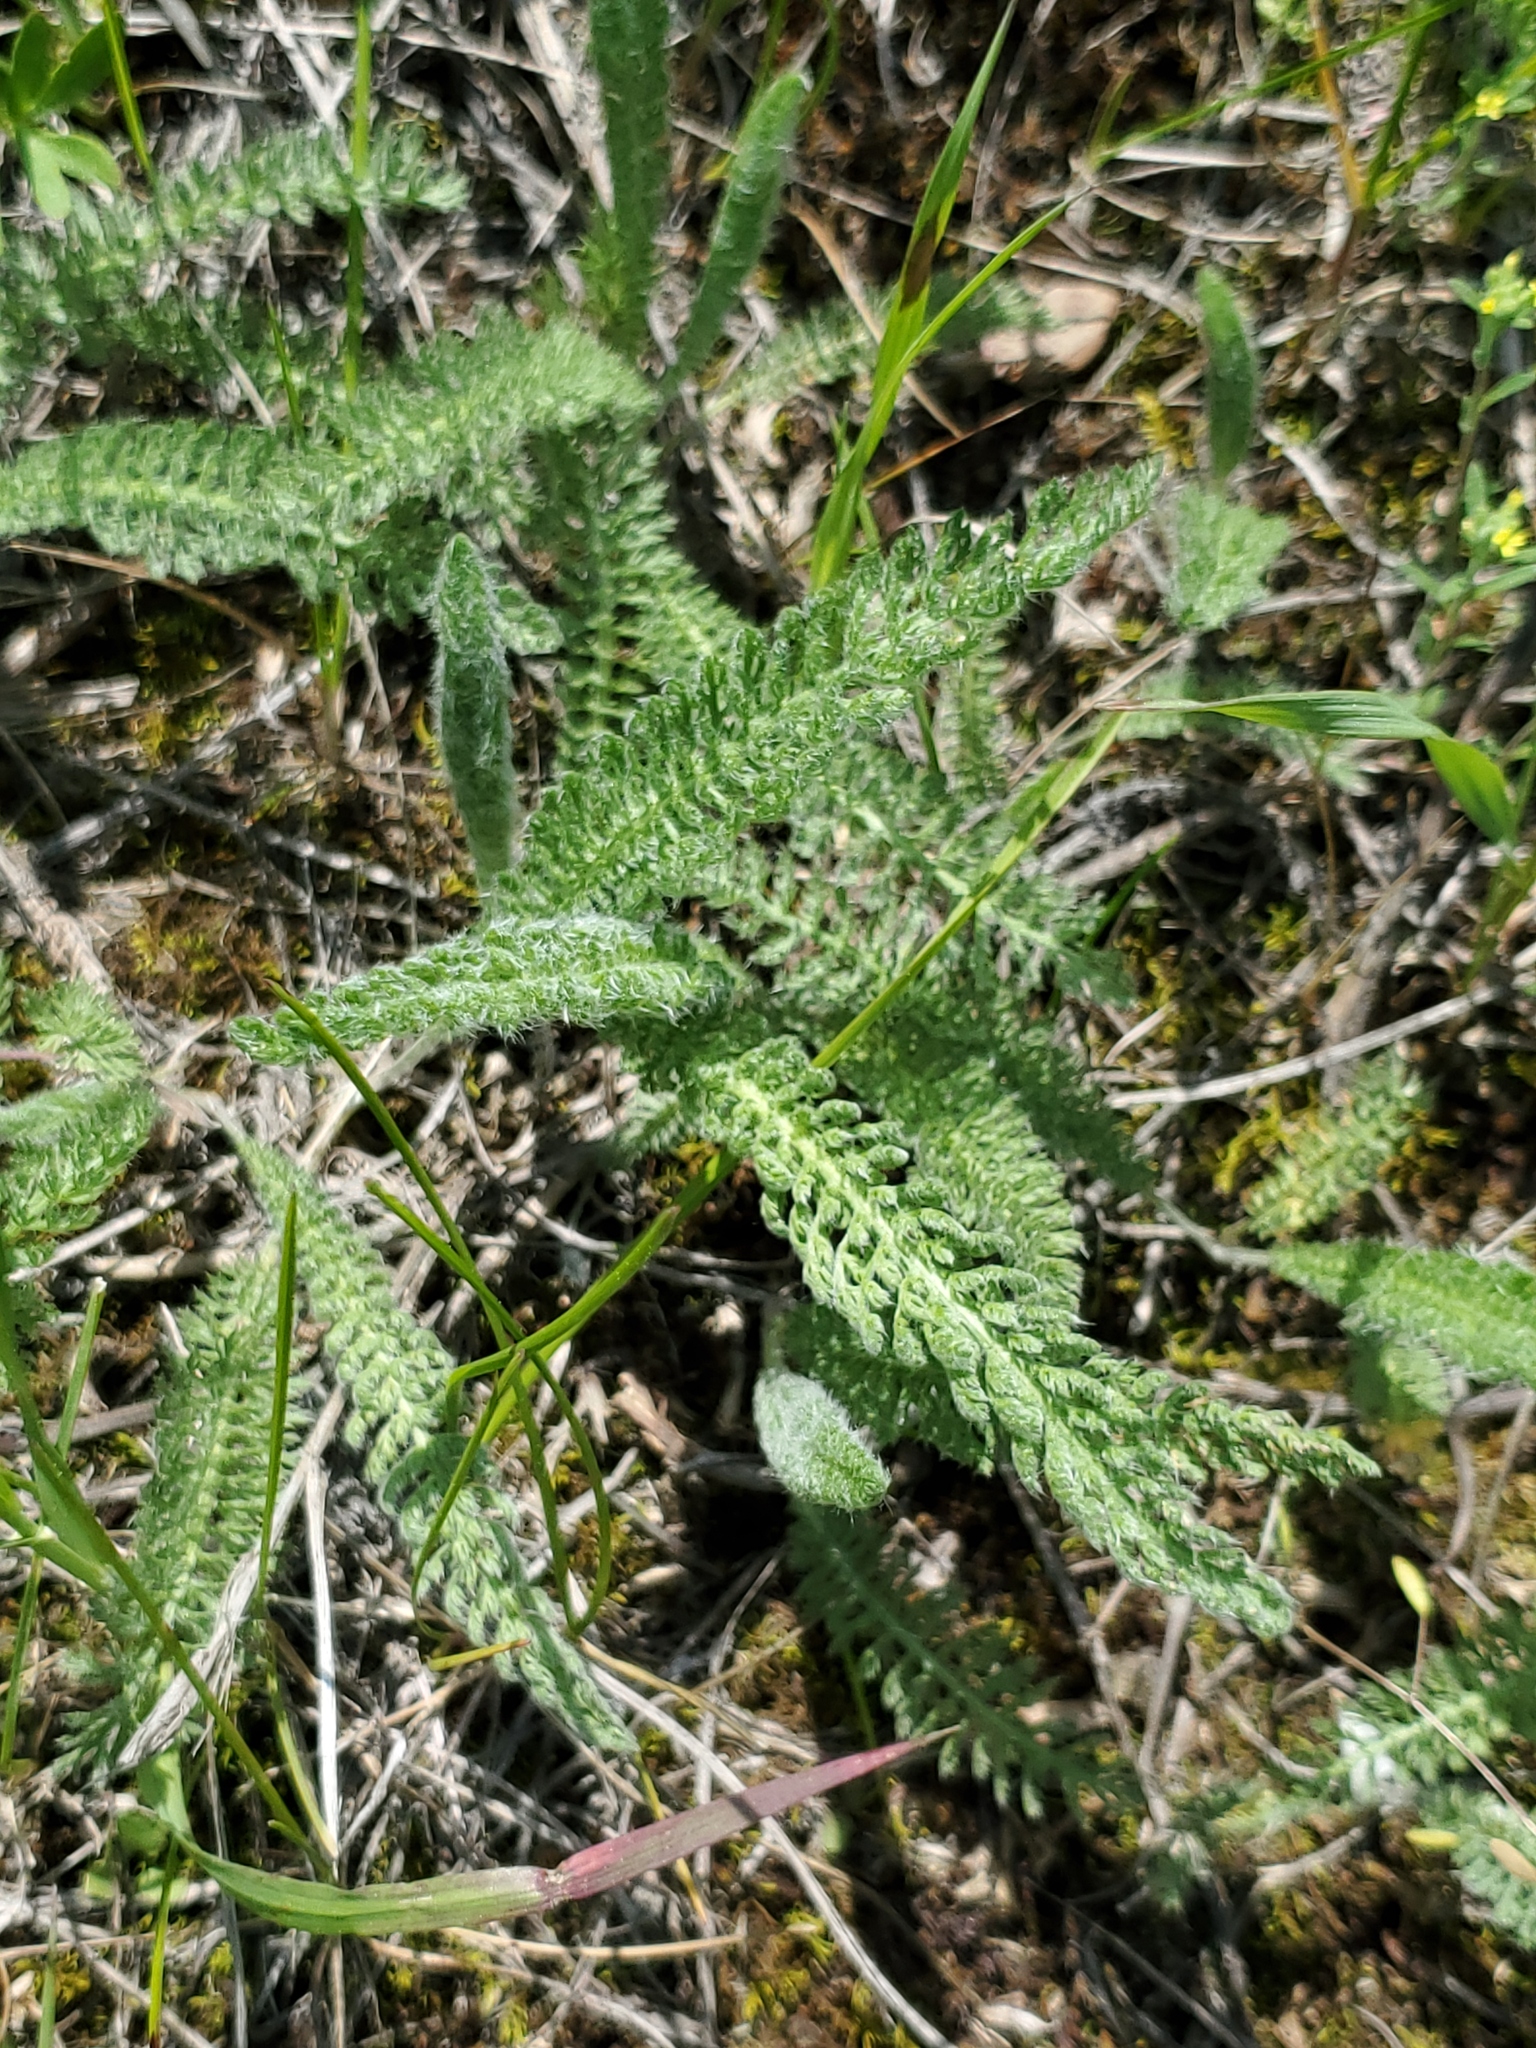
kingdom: Plantae
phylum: Tracheophyta
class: Magnoliopsida
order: Asterales
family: Asteraceae
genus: Achillea
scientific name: Achillea millefolium
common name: Yarrow
